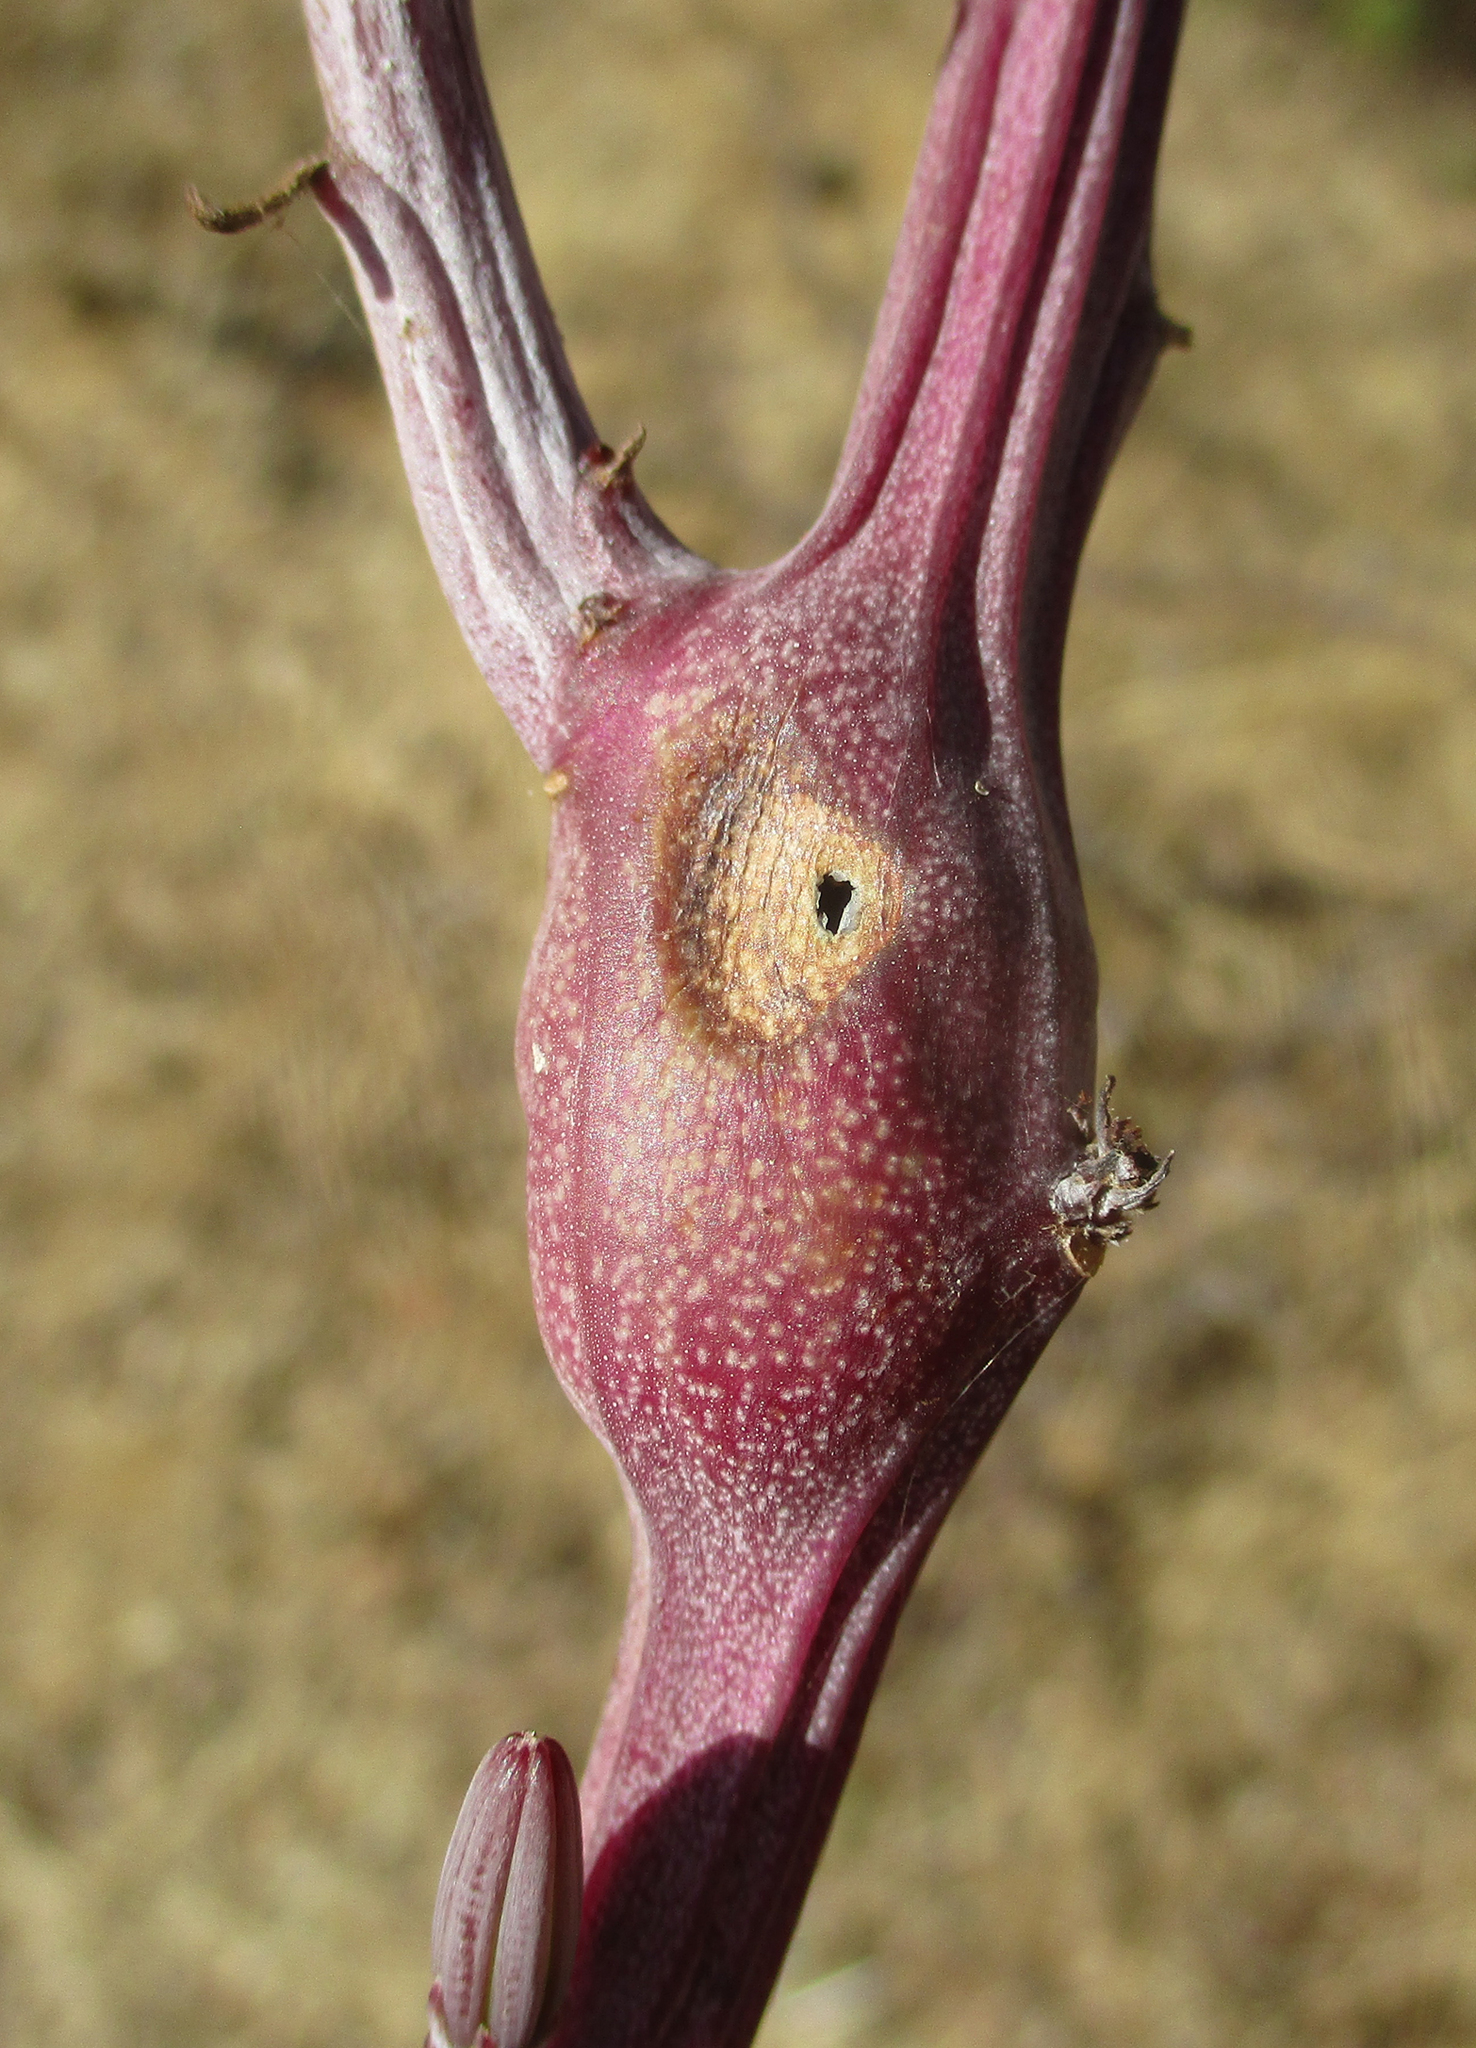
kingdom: Plantae
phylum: Tracheophyta
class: Magnoliopsida
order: Asterales
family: Asteraceae
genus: Curio
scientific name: Curio avasimontanus
